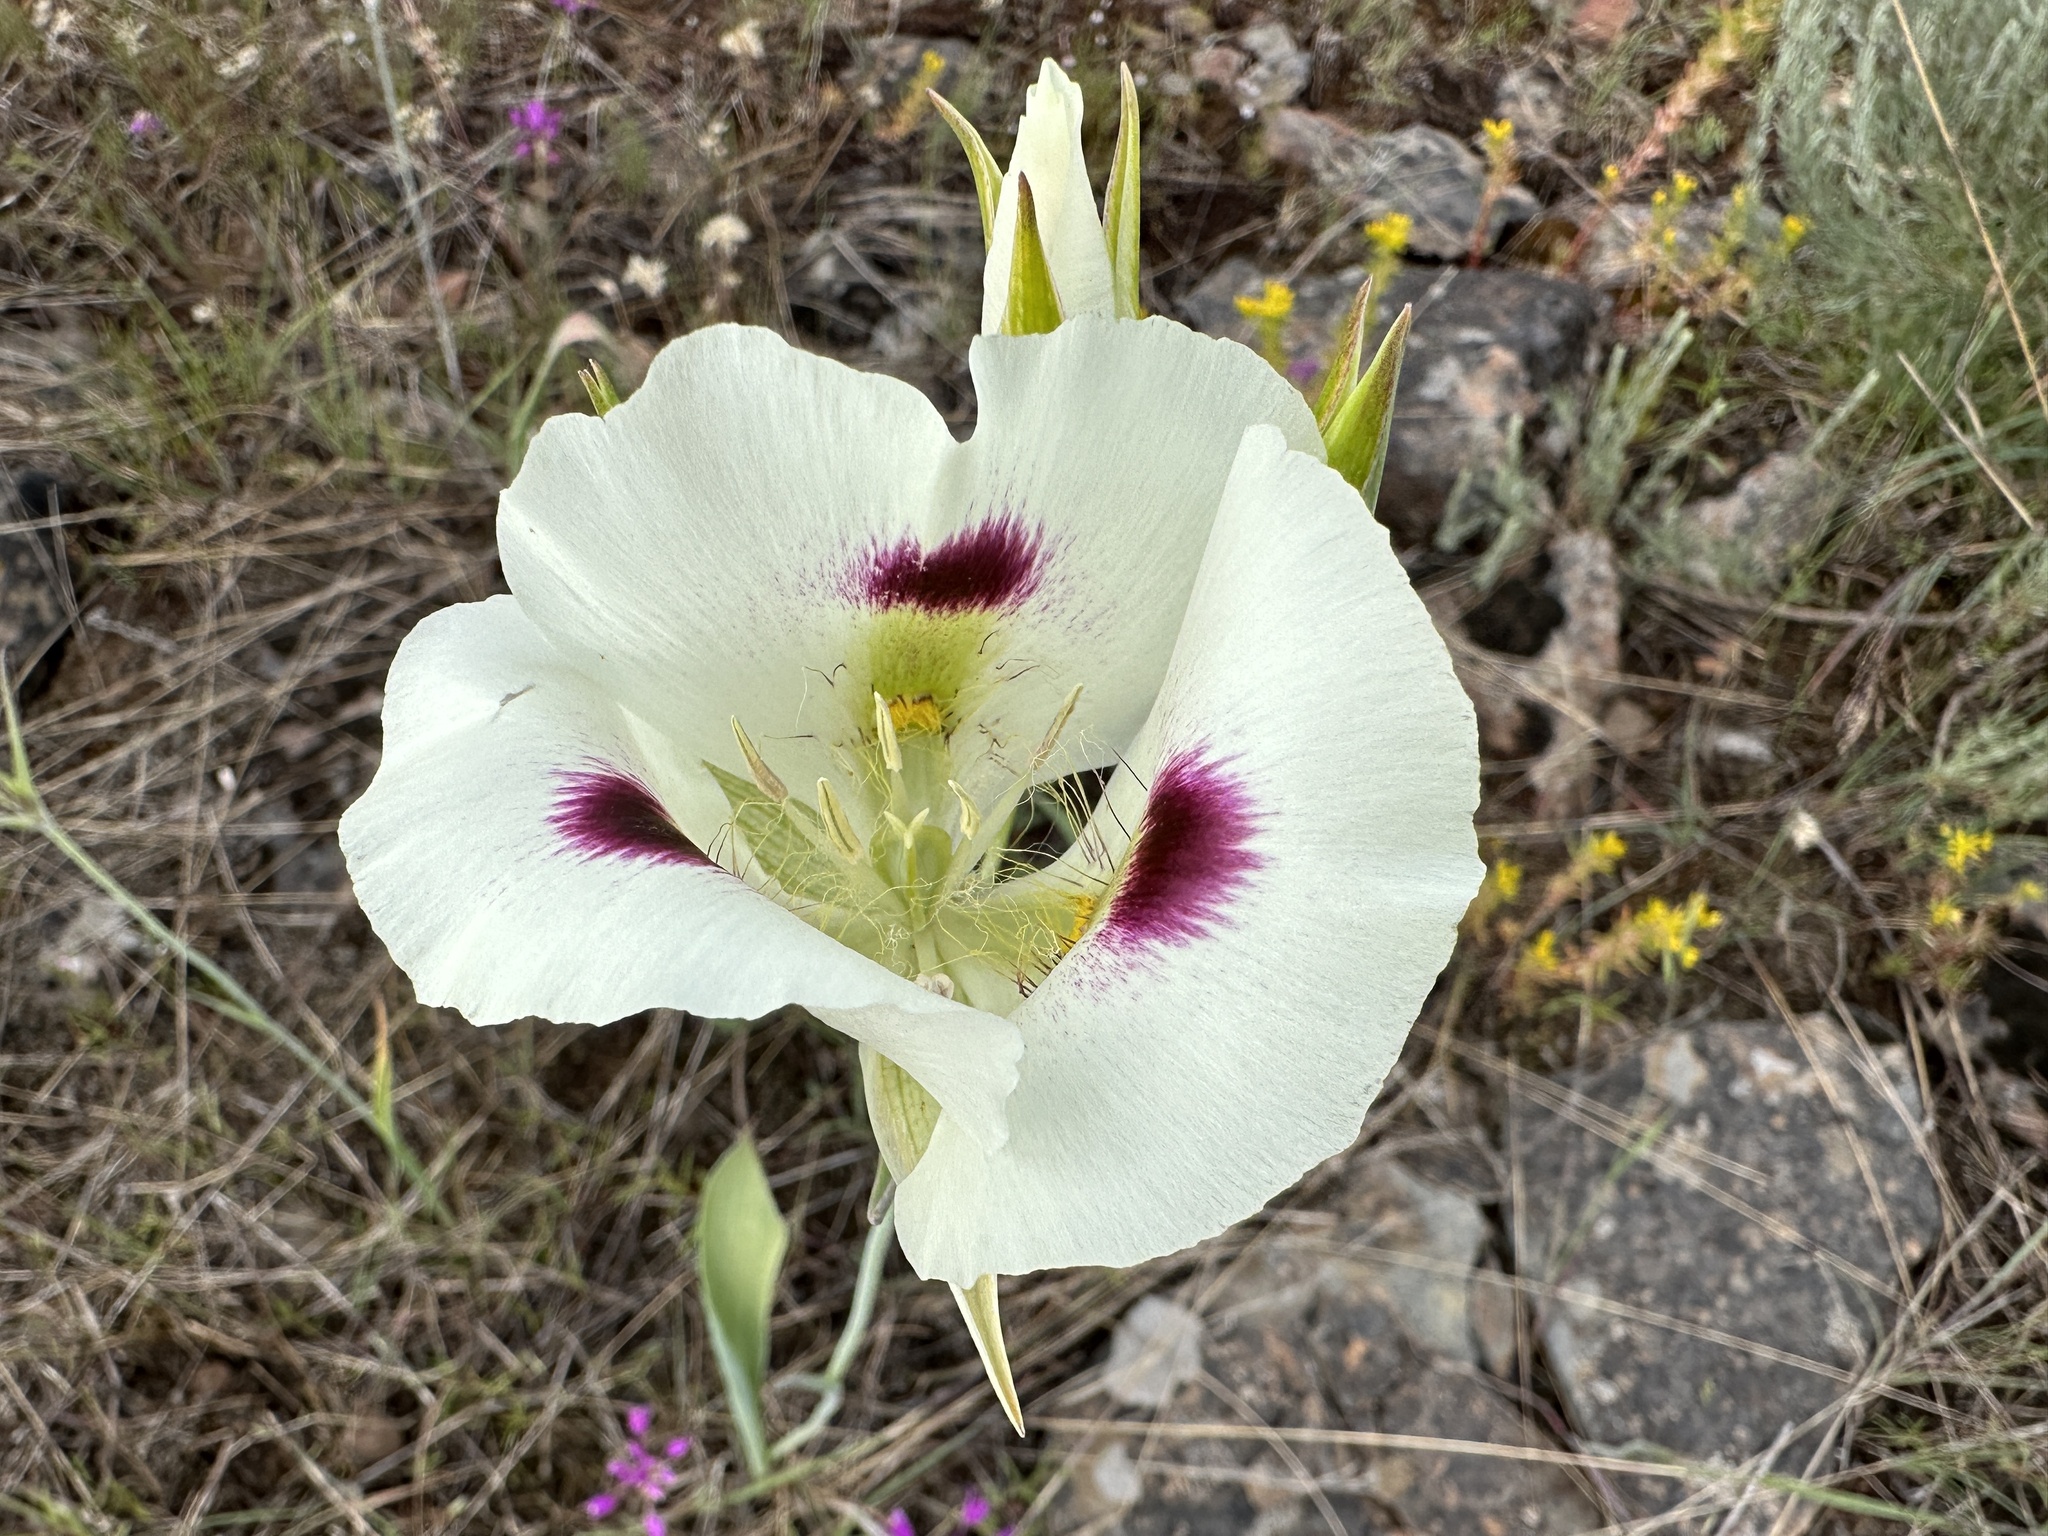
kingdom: Plantae
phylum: Tracheophyta
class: Liliopsida
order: Liliales
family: Liliaceae
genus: Calochortus
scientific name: Calochortus eurycarpus
